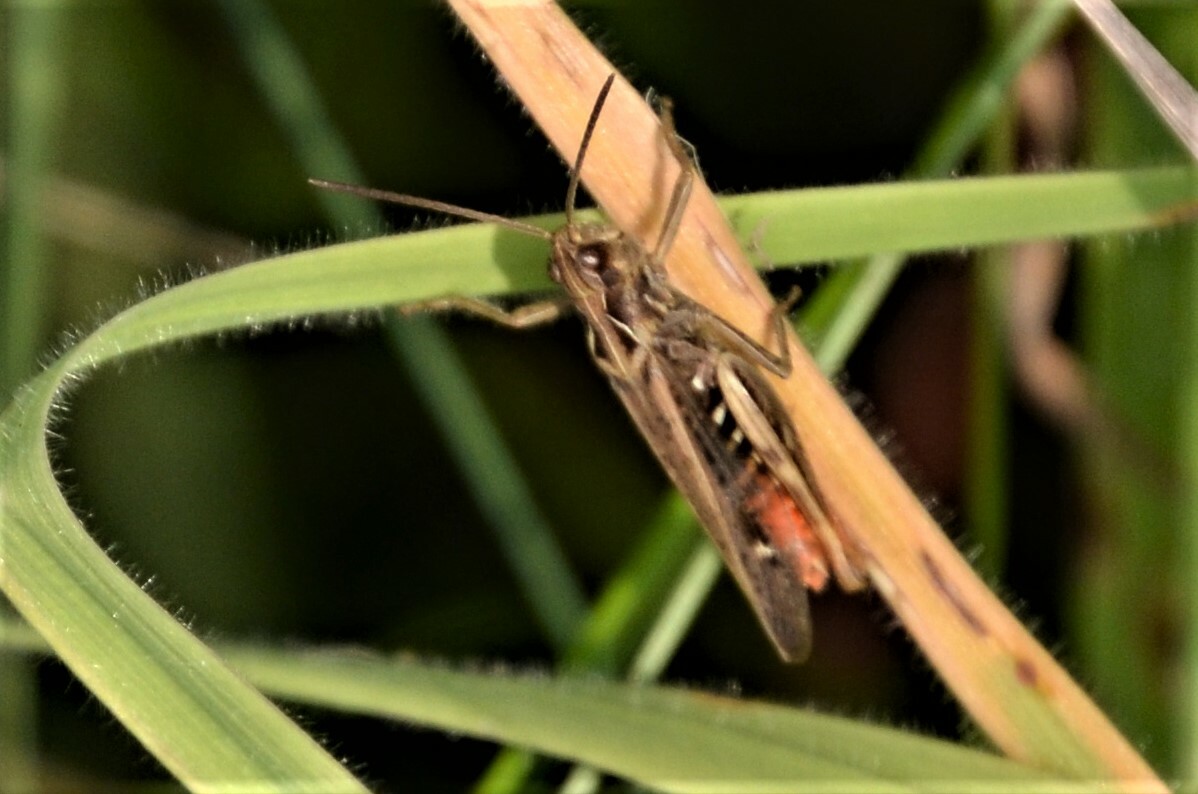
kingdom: Animalia
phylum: Arthropoda
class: Insecta
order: Orthoptera
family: Acrididae
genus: Chorthippus
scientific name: Chorthippus biguttulus
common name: Bow-winged grasshopper
